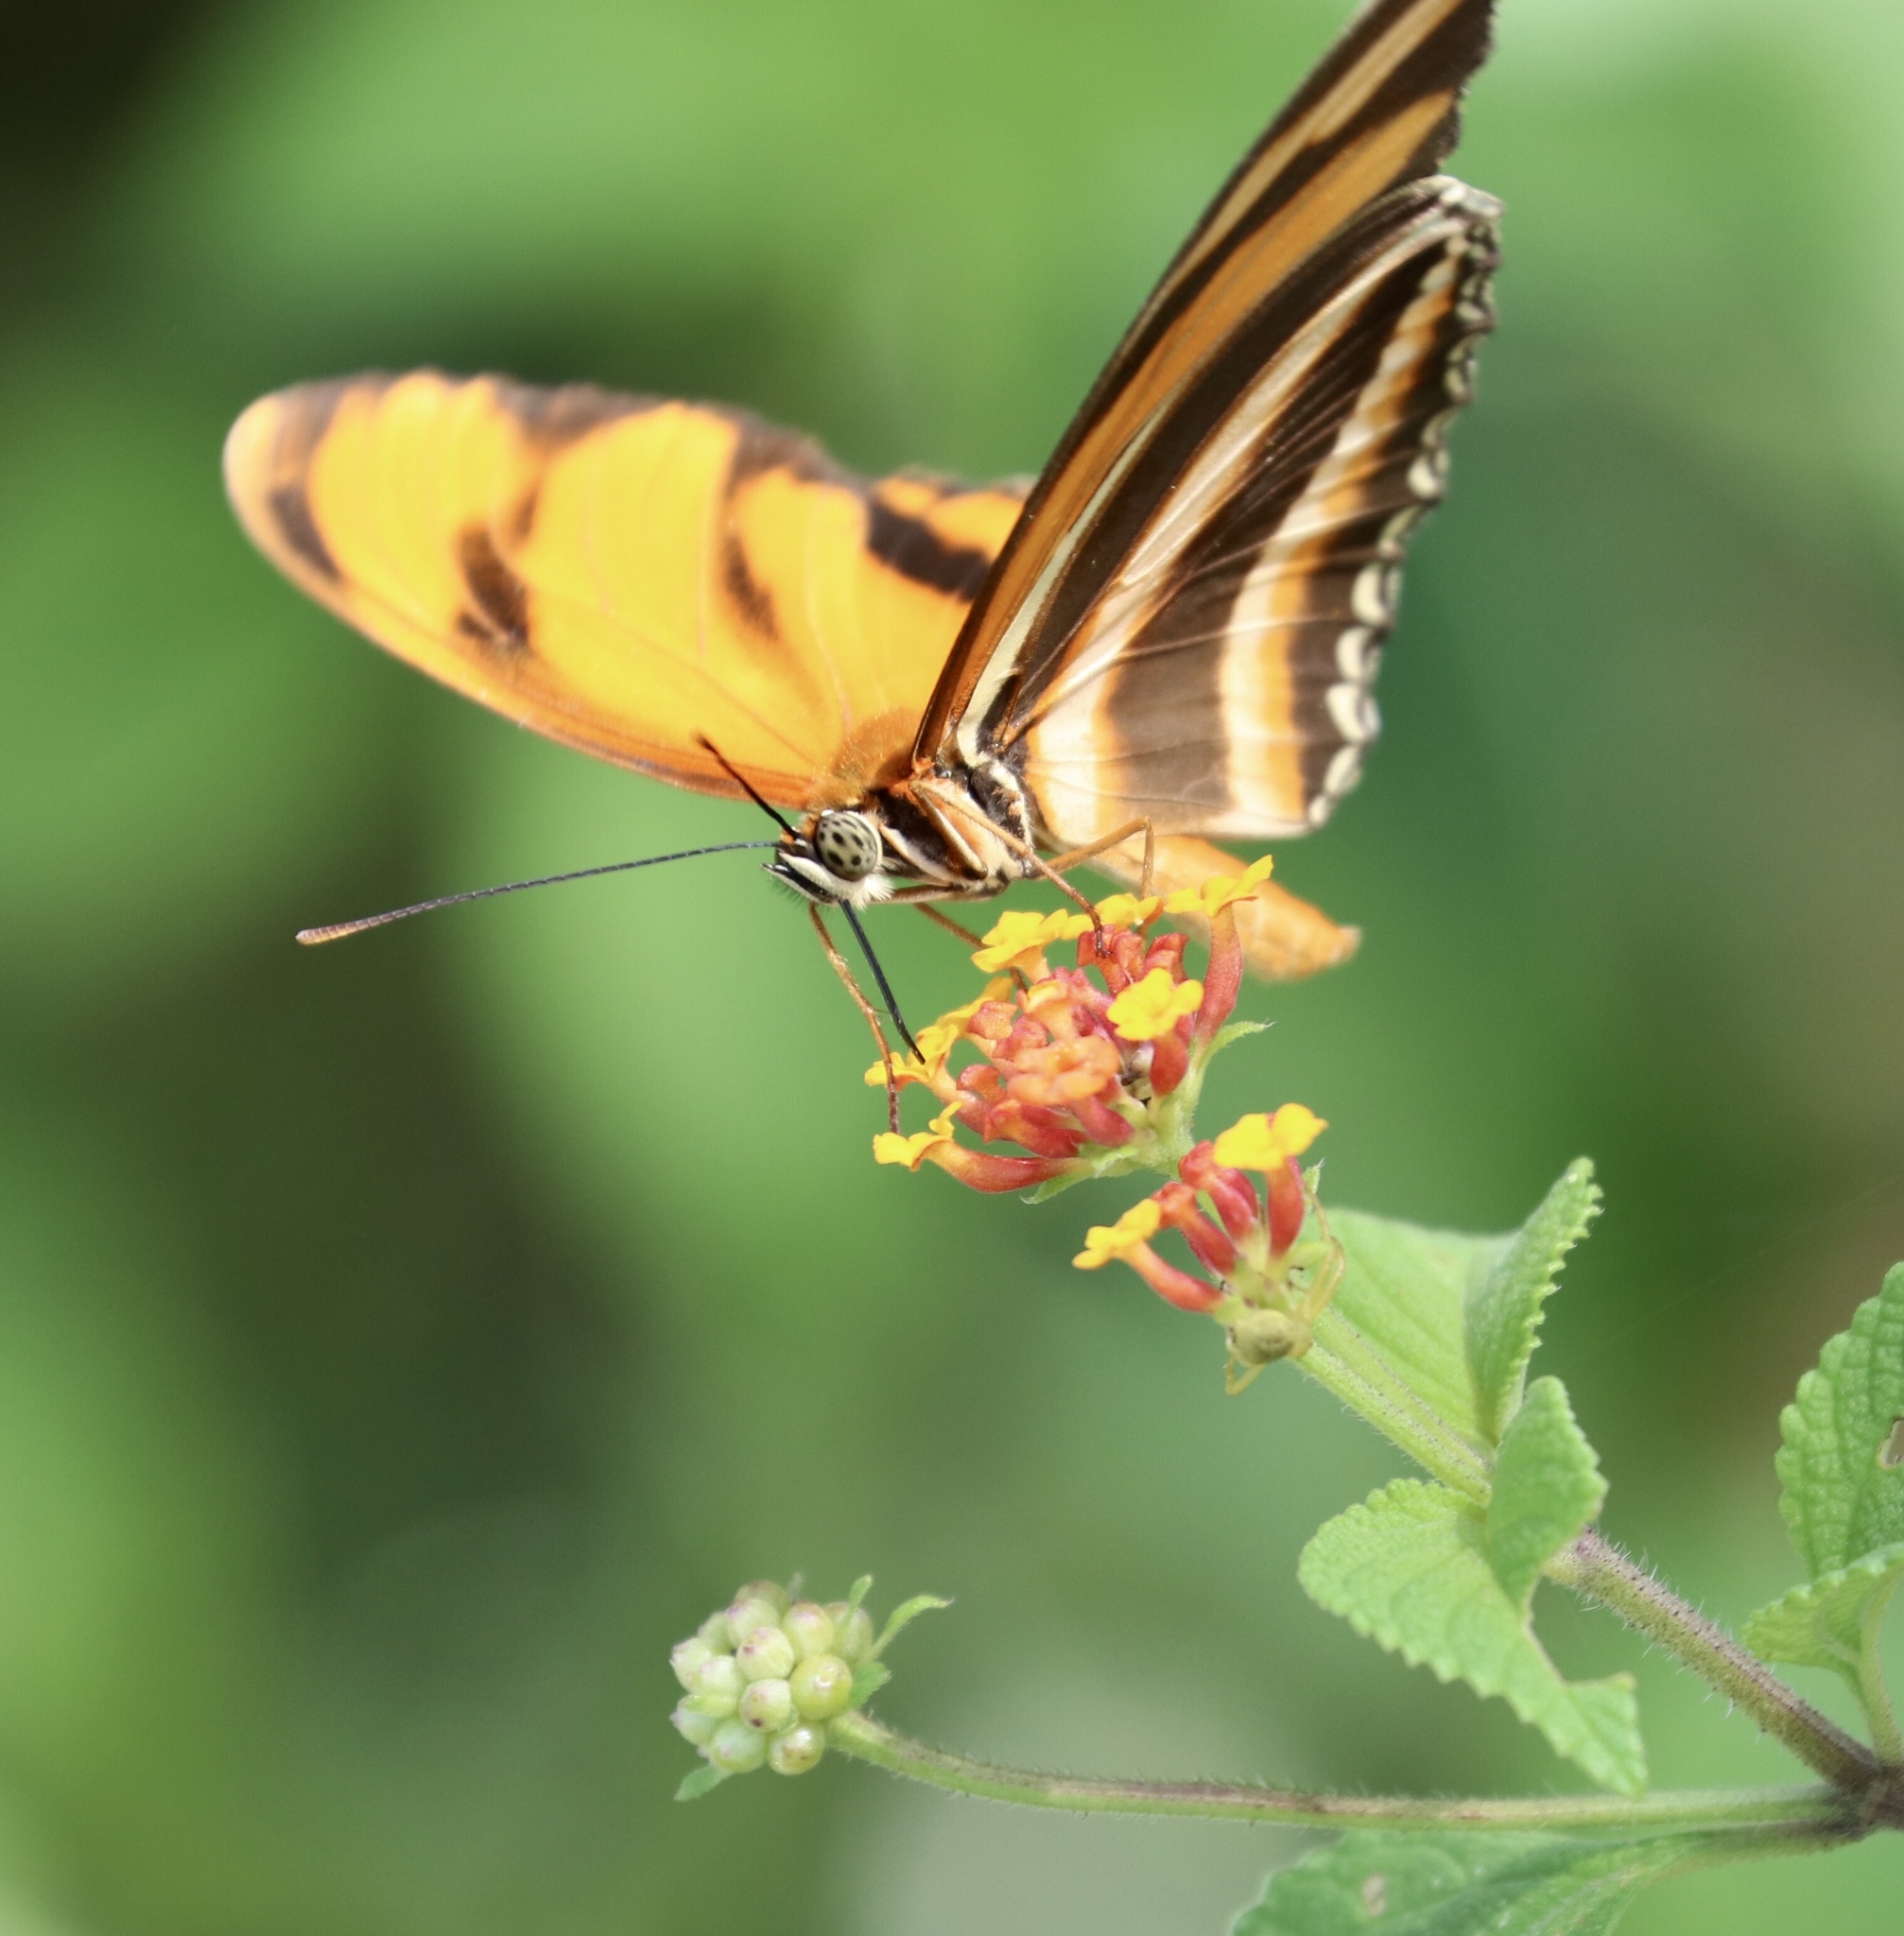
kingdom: Animalia
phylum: Arthropoda
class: Insecta
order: Lepidoptera
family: Nymphalidae
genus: Dryadula
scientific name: Dryadula phaetusa
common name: Banded orange heliconian
